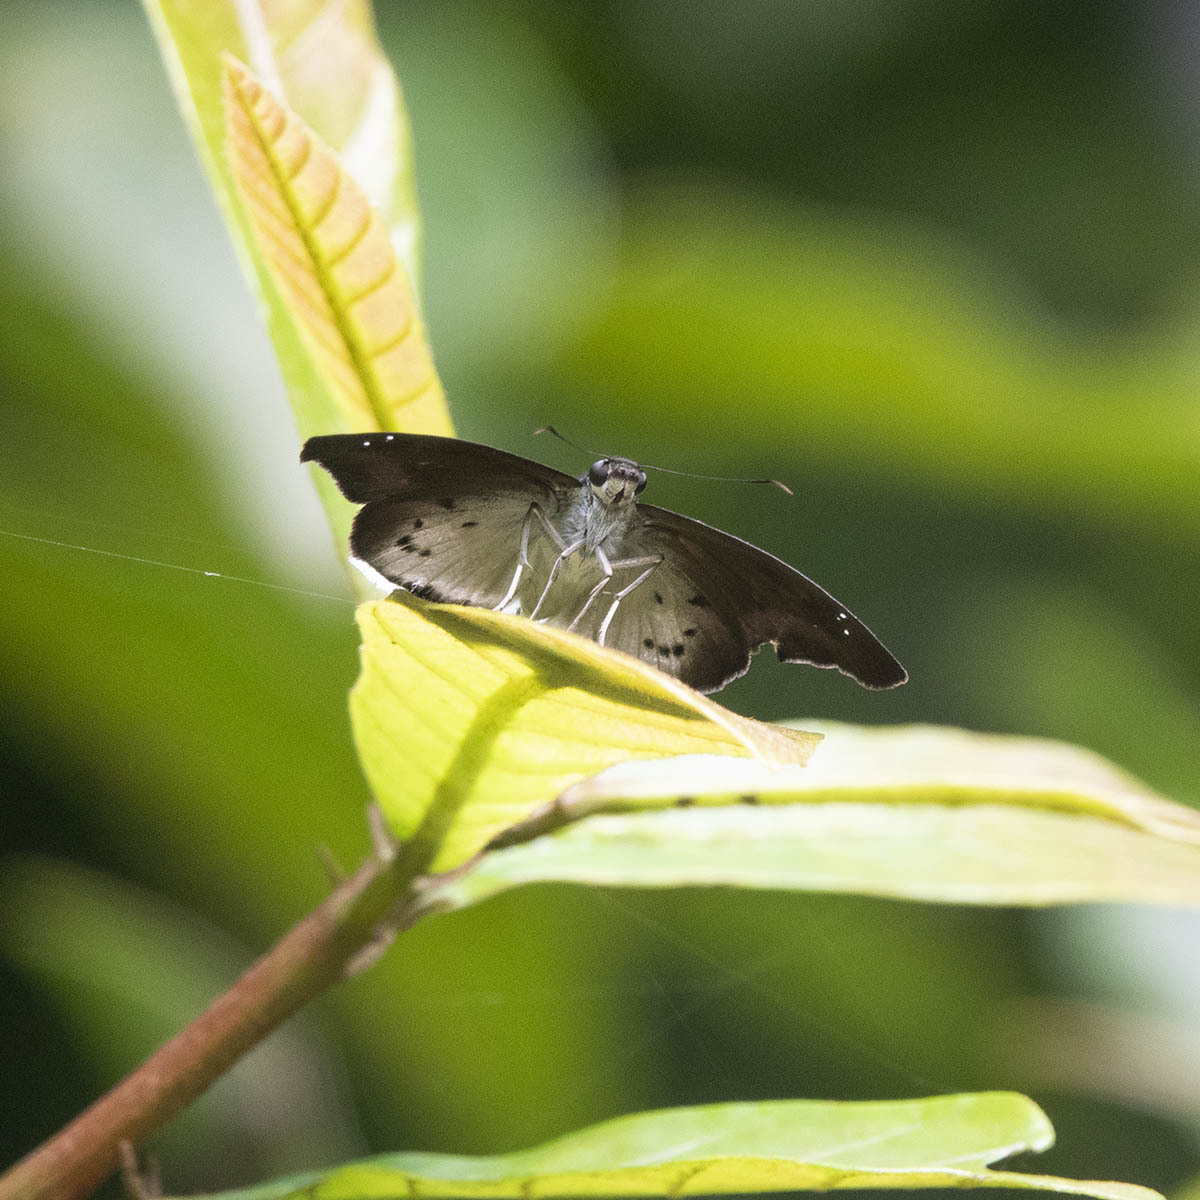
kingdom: Animalia
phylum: Arthropoda
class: Insecta
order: Lepidoptera
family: Hesperiidae
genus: Tagiades
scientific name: Tagiades gana
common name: Suffused snow flat
